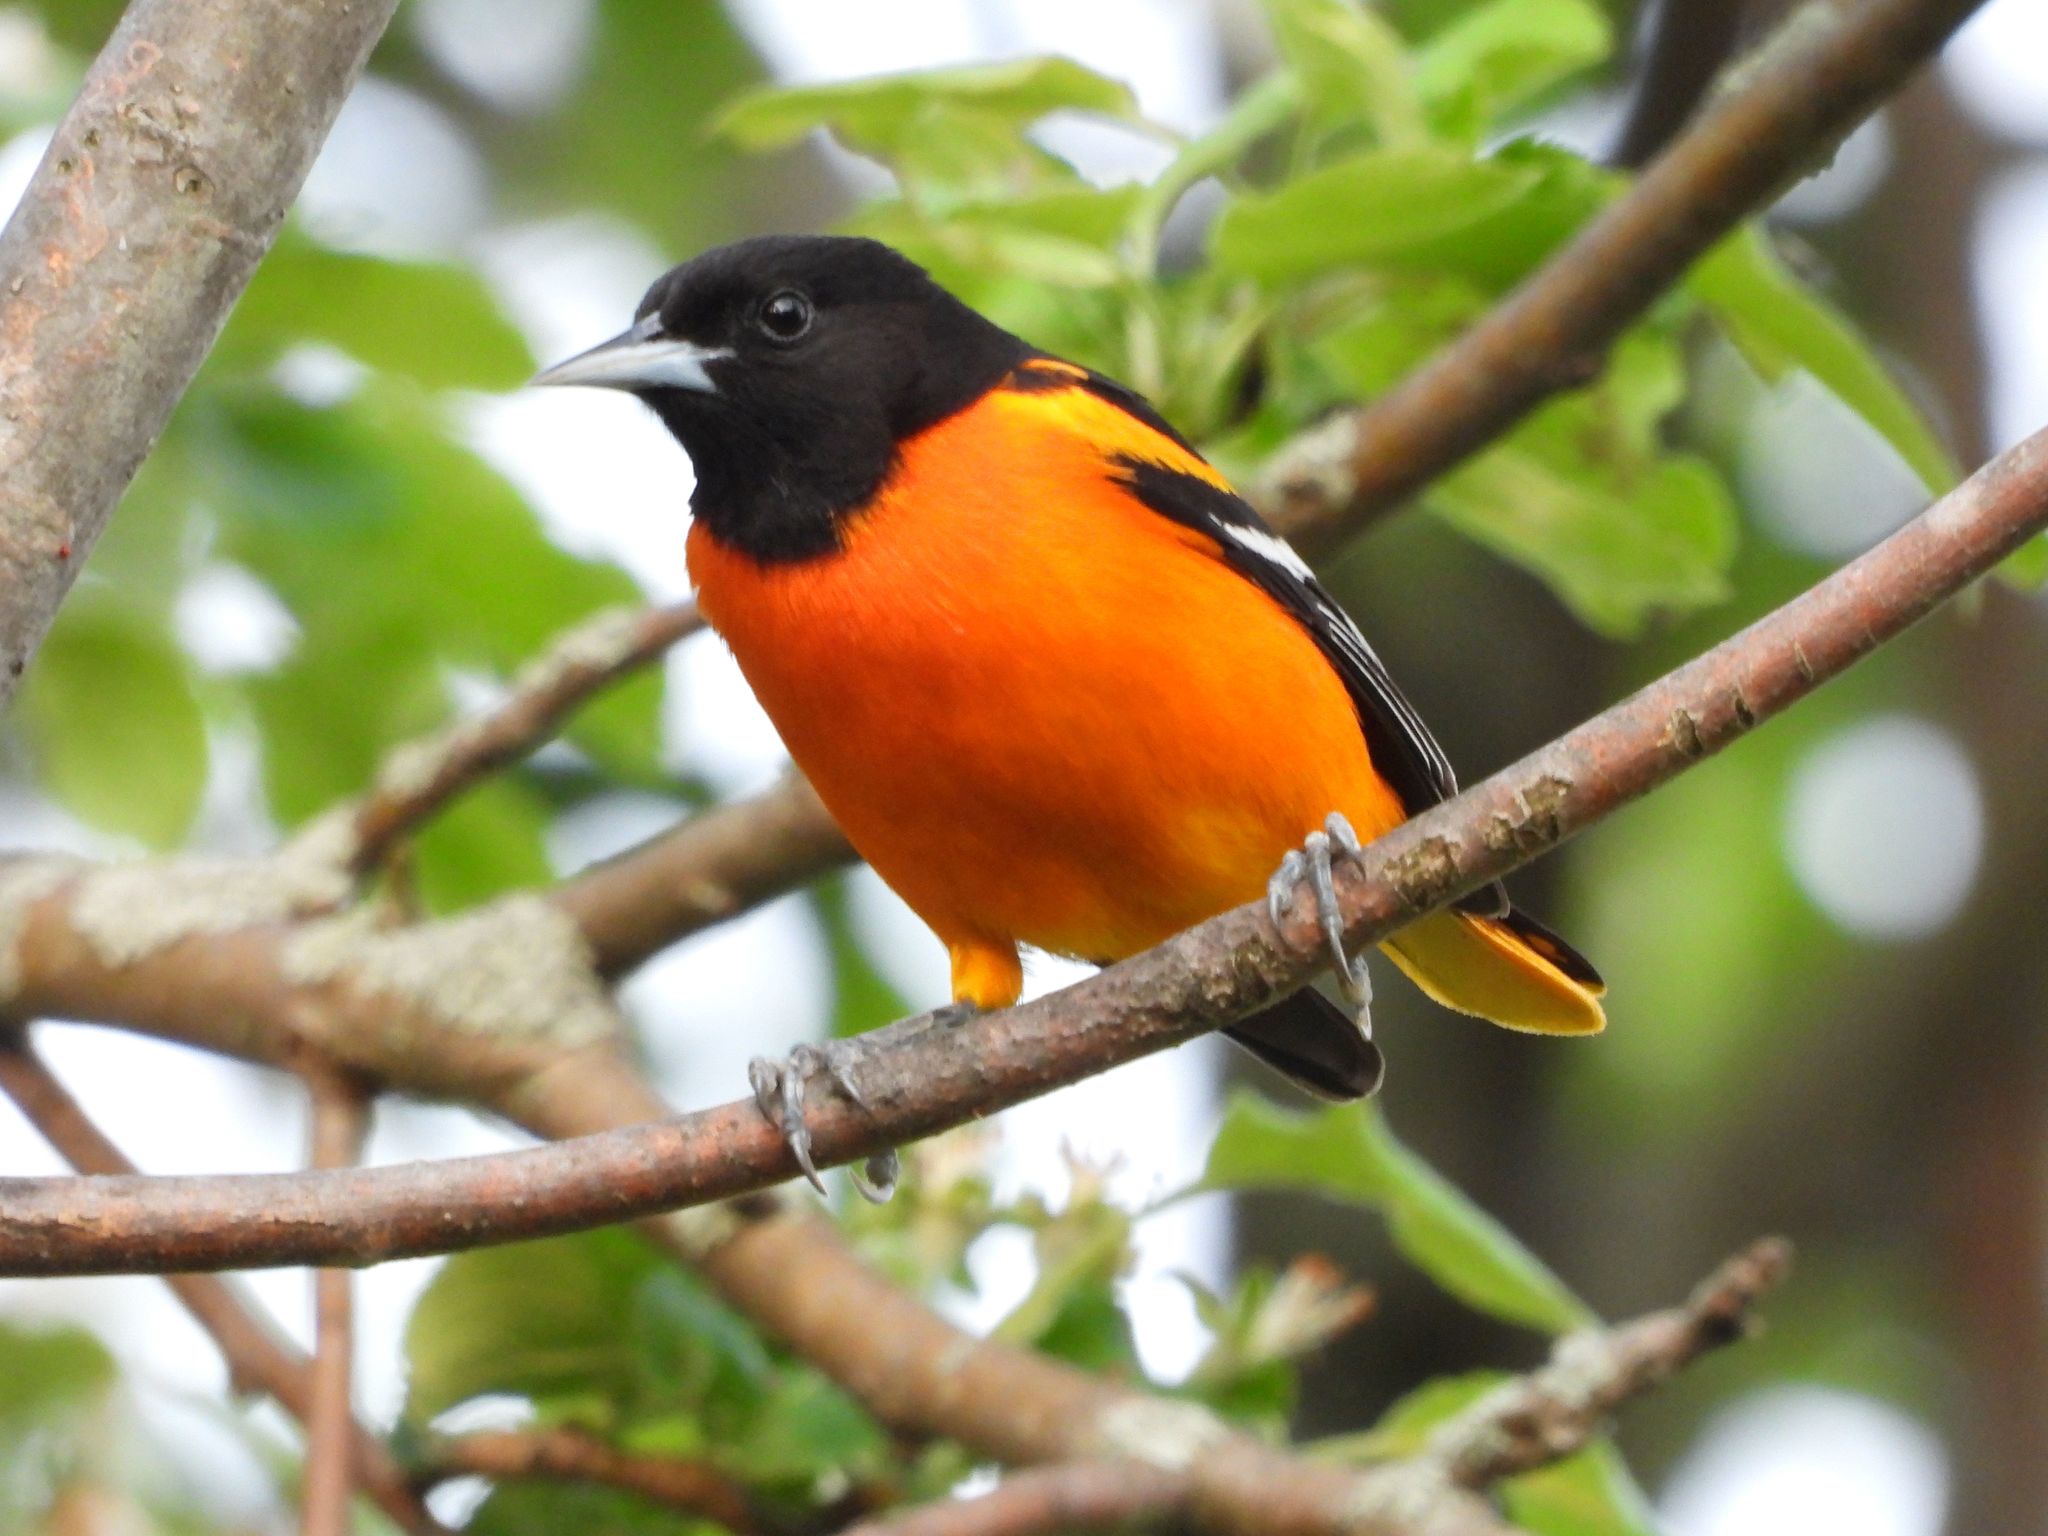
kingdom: Animalia
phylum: Chordata
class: Aves
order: Passeriformes
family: Icteridae
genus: Icterus
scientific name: Icterus galbula
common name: Baltimore oriole
